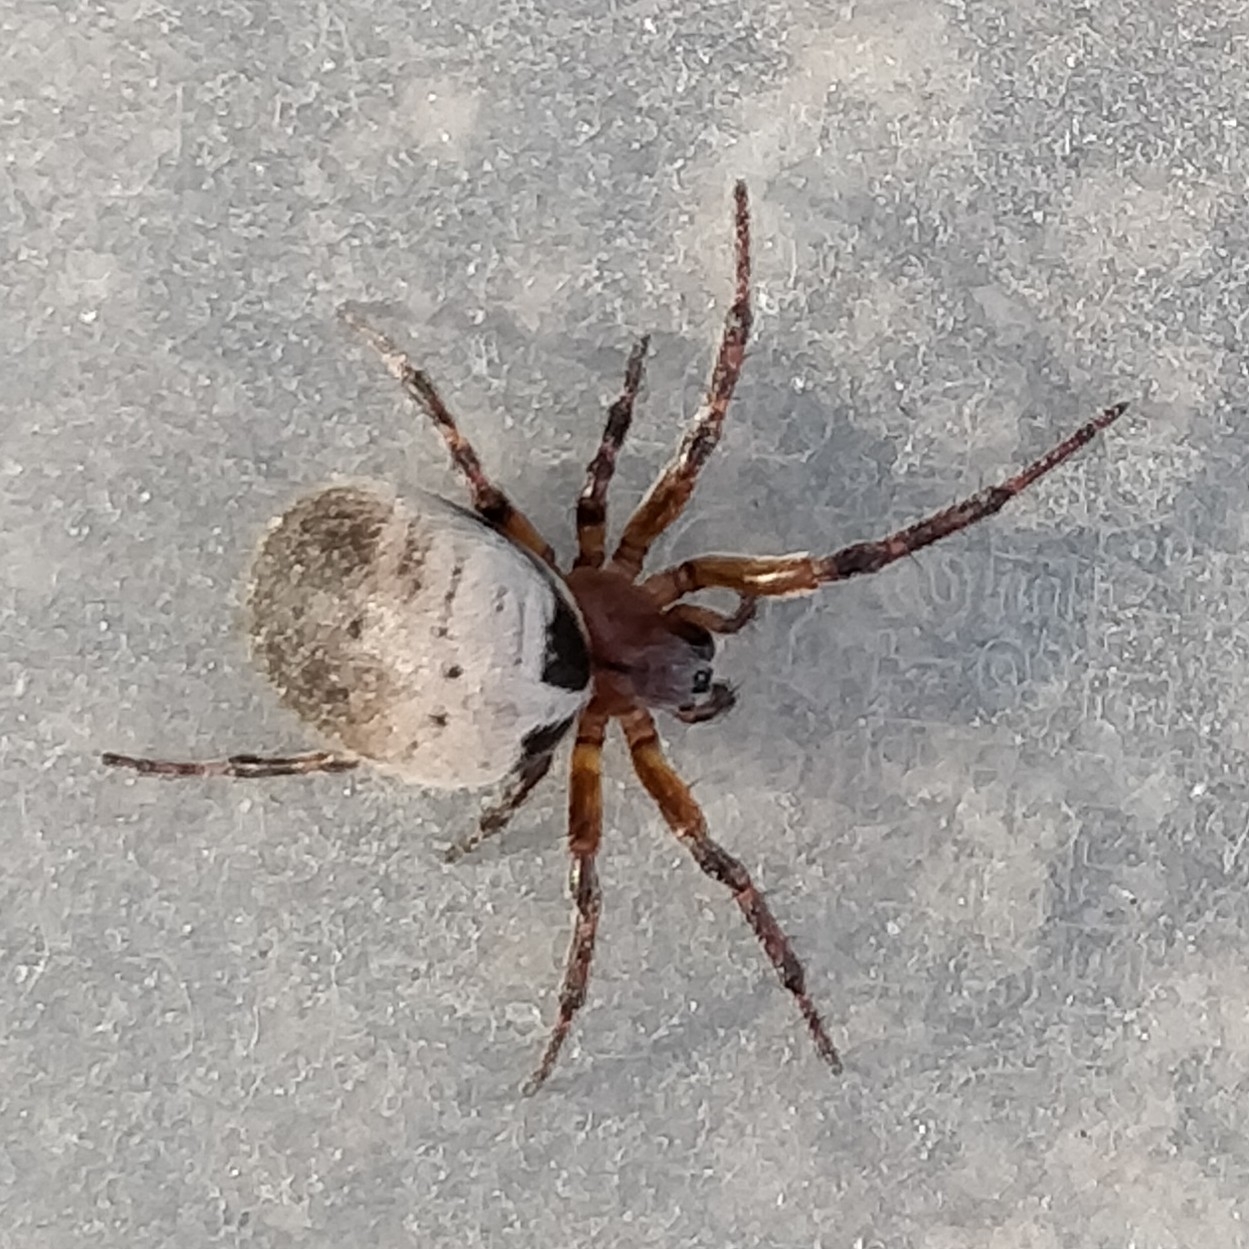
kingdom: Animalia
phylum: Arthropoda
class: Arachnida
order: Araneae
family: Araneidae
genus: Araneus
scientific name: Araneus dimidiatus
